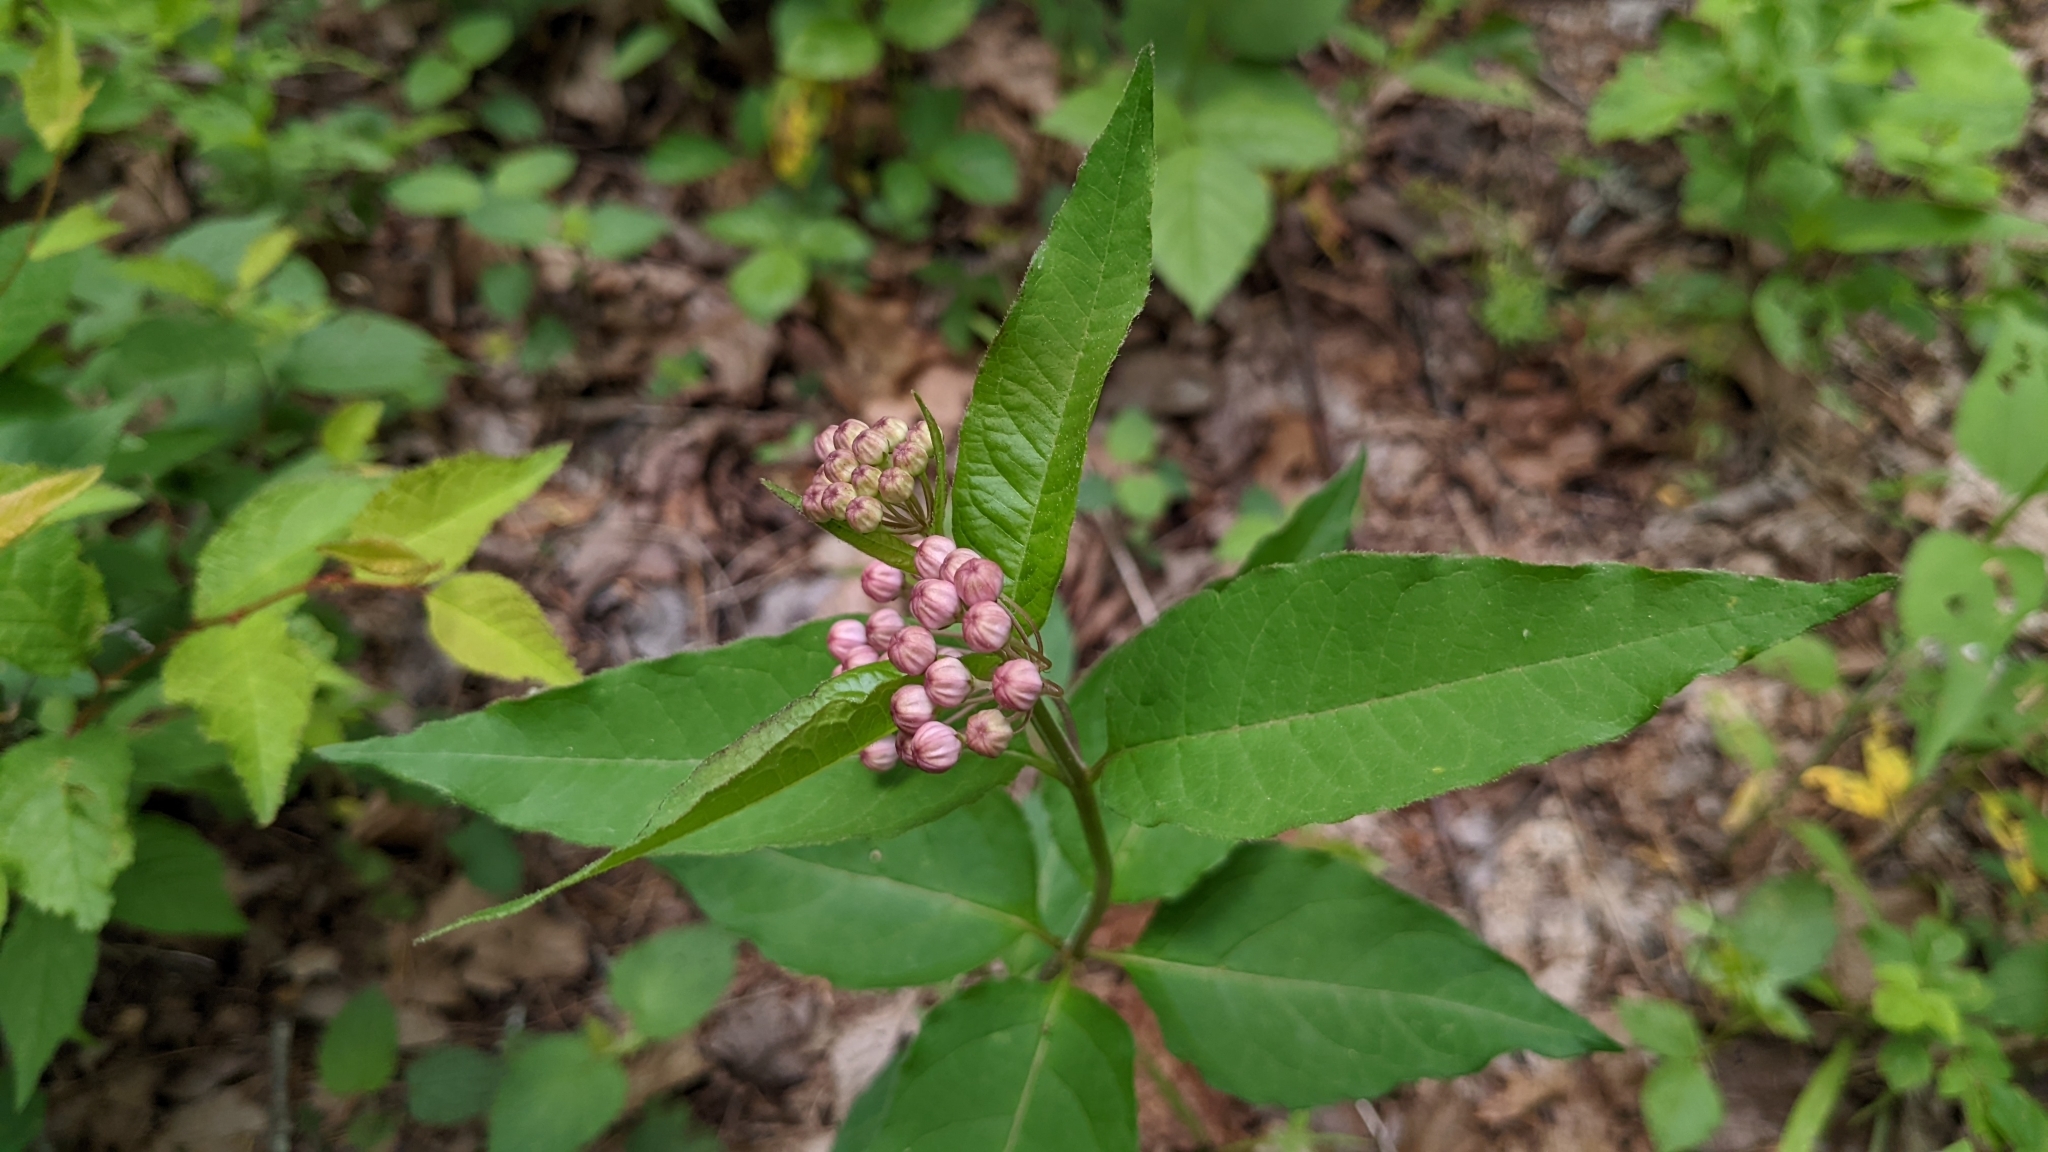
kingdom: Plantae
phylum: Tracheophyta
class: Magnoliopsida
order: Gentianales
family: Apocynaceae
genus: Asclepias
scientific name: Asclepias quadrifolia
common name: Whorled milkweed
